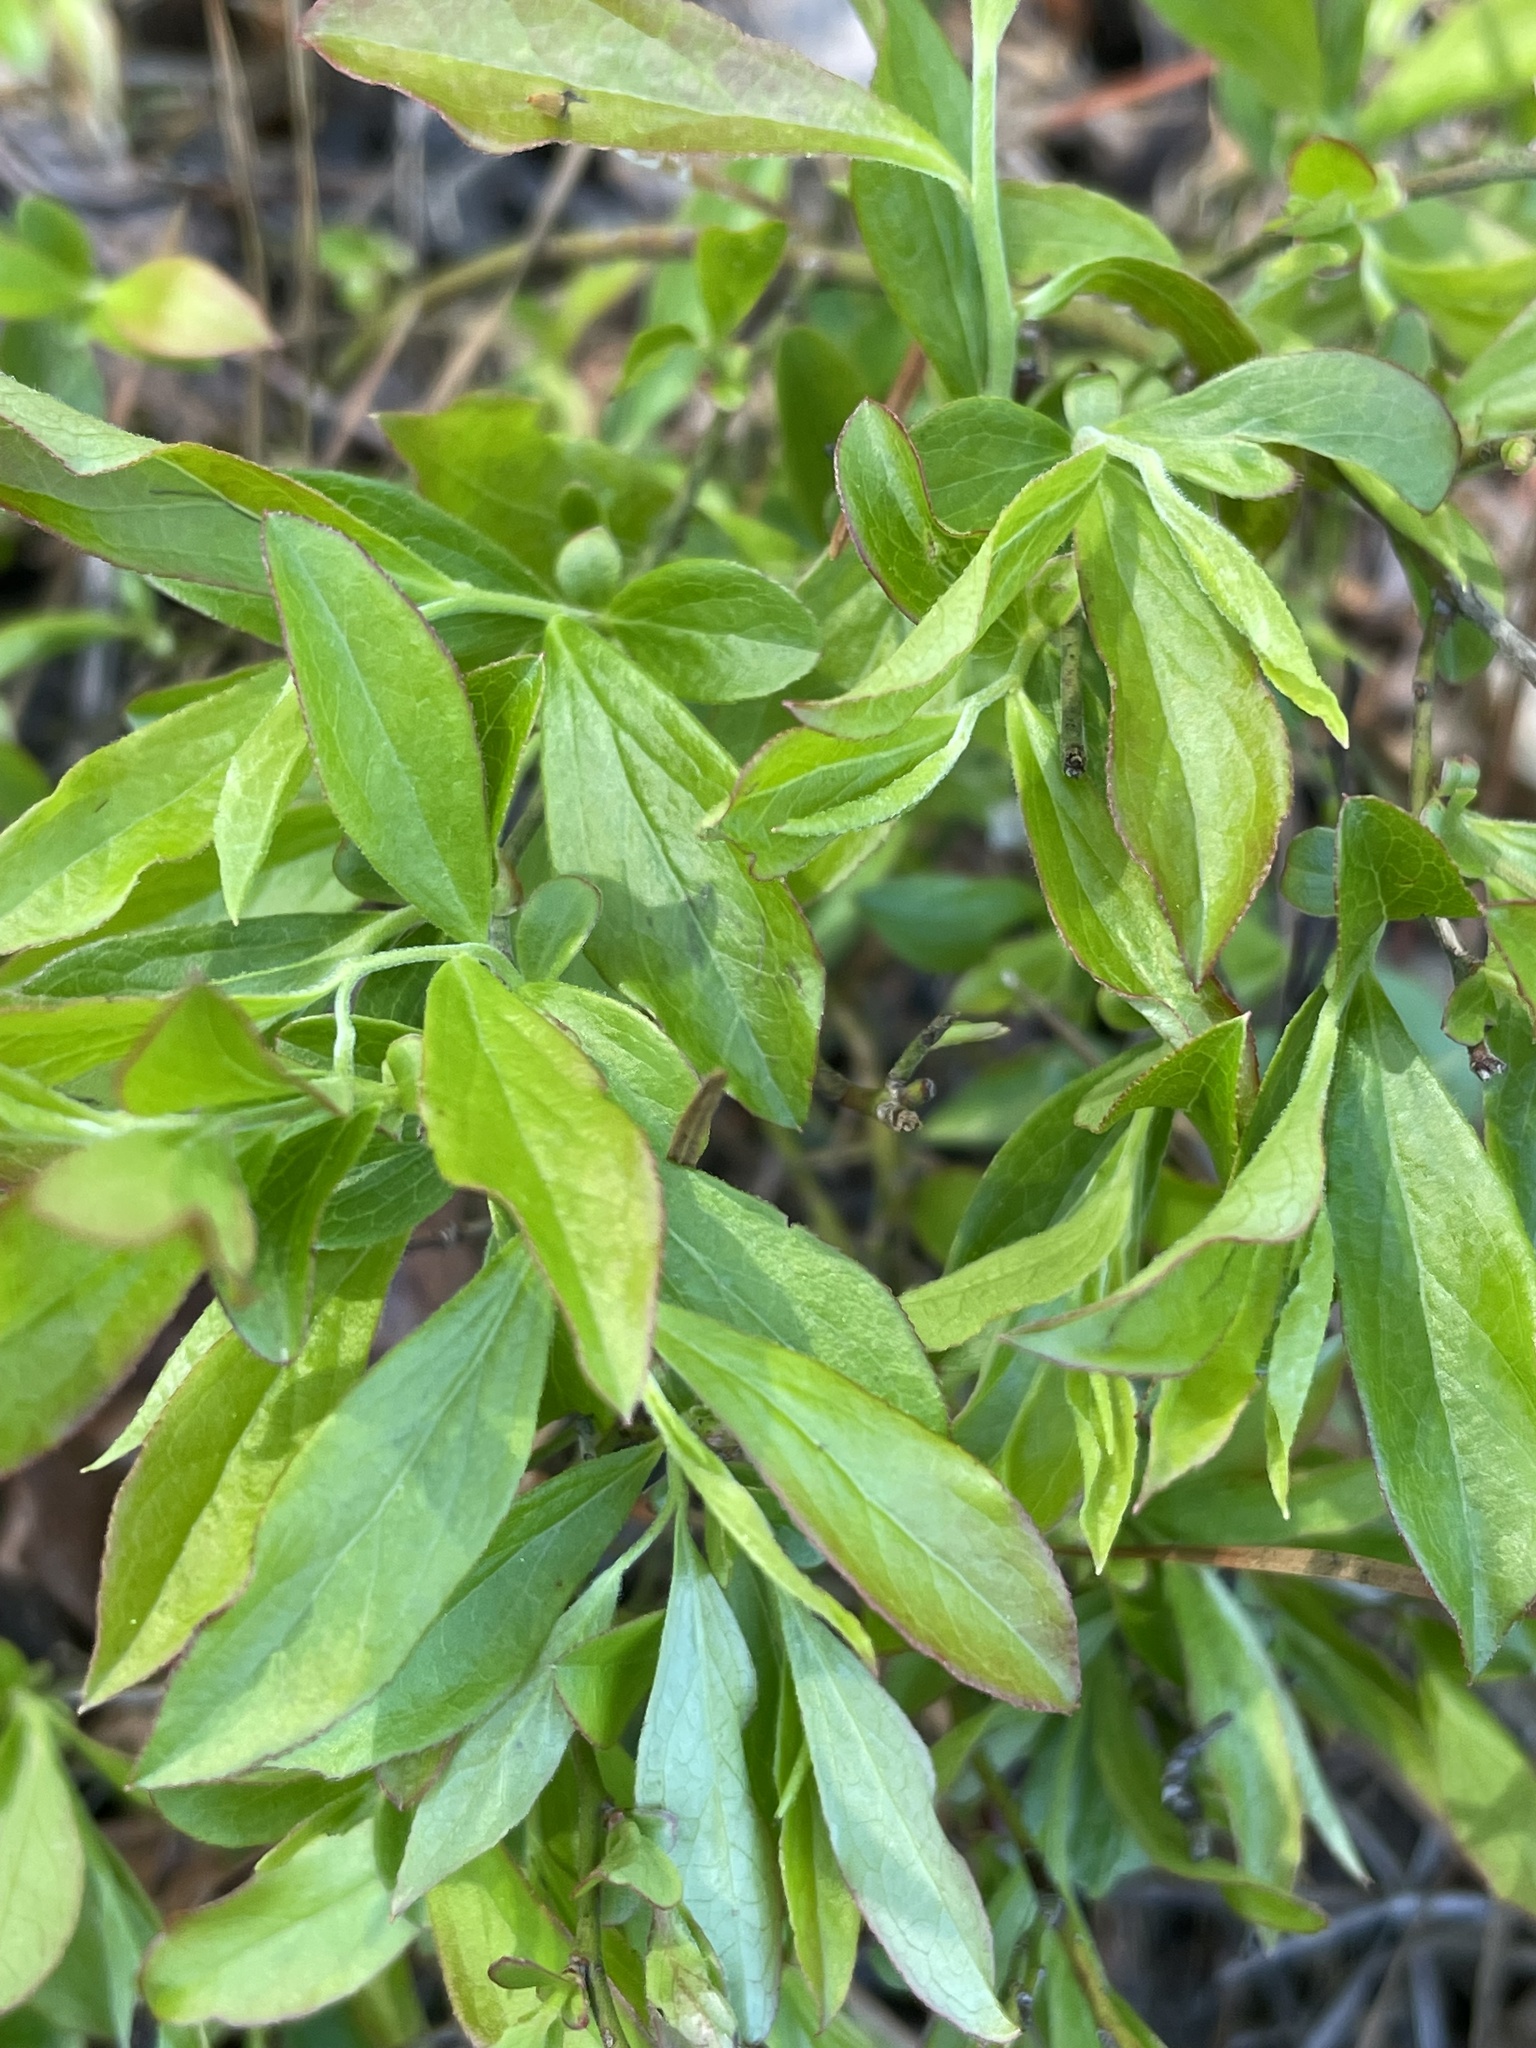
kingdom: Plantae
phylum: Tracheophyta
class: Magnoliopsida
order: Ericales
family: Ericaceae
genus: Vaccinium
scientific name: Vaccinium tenellum
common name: Southern blueberry
